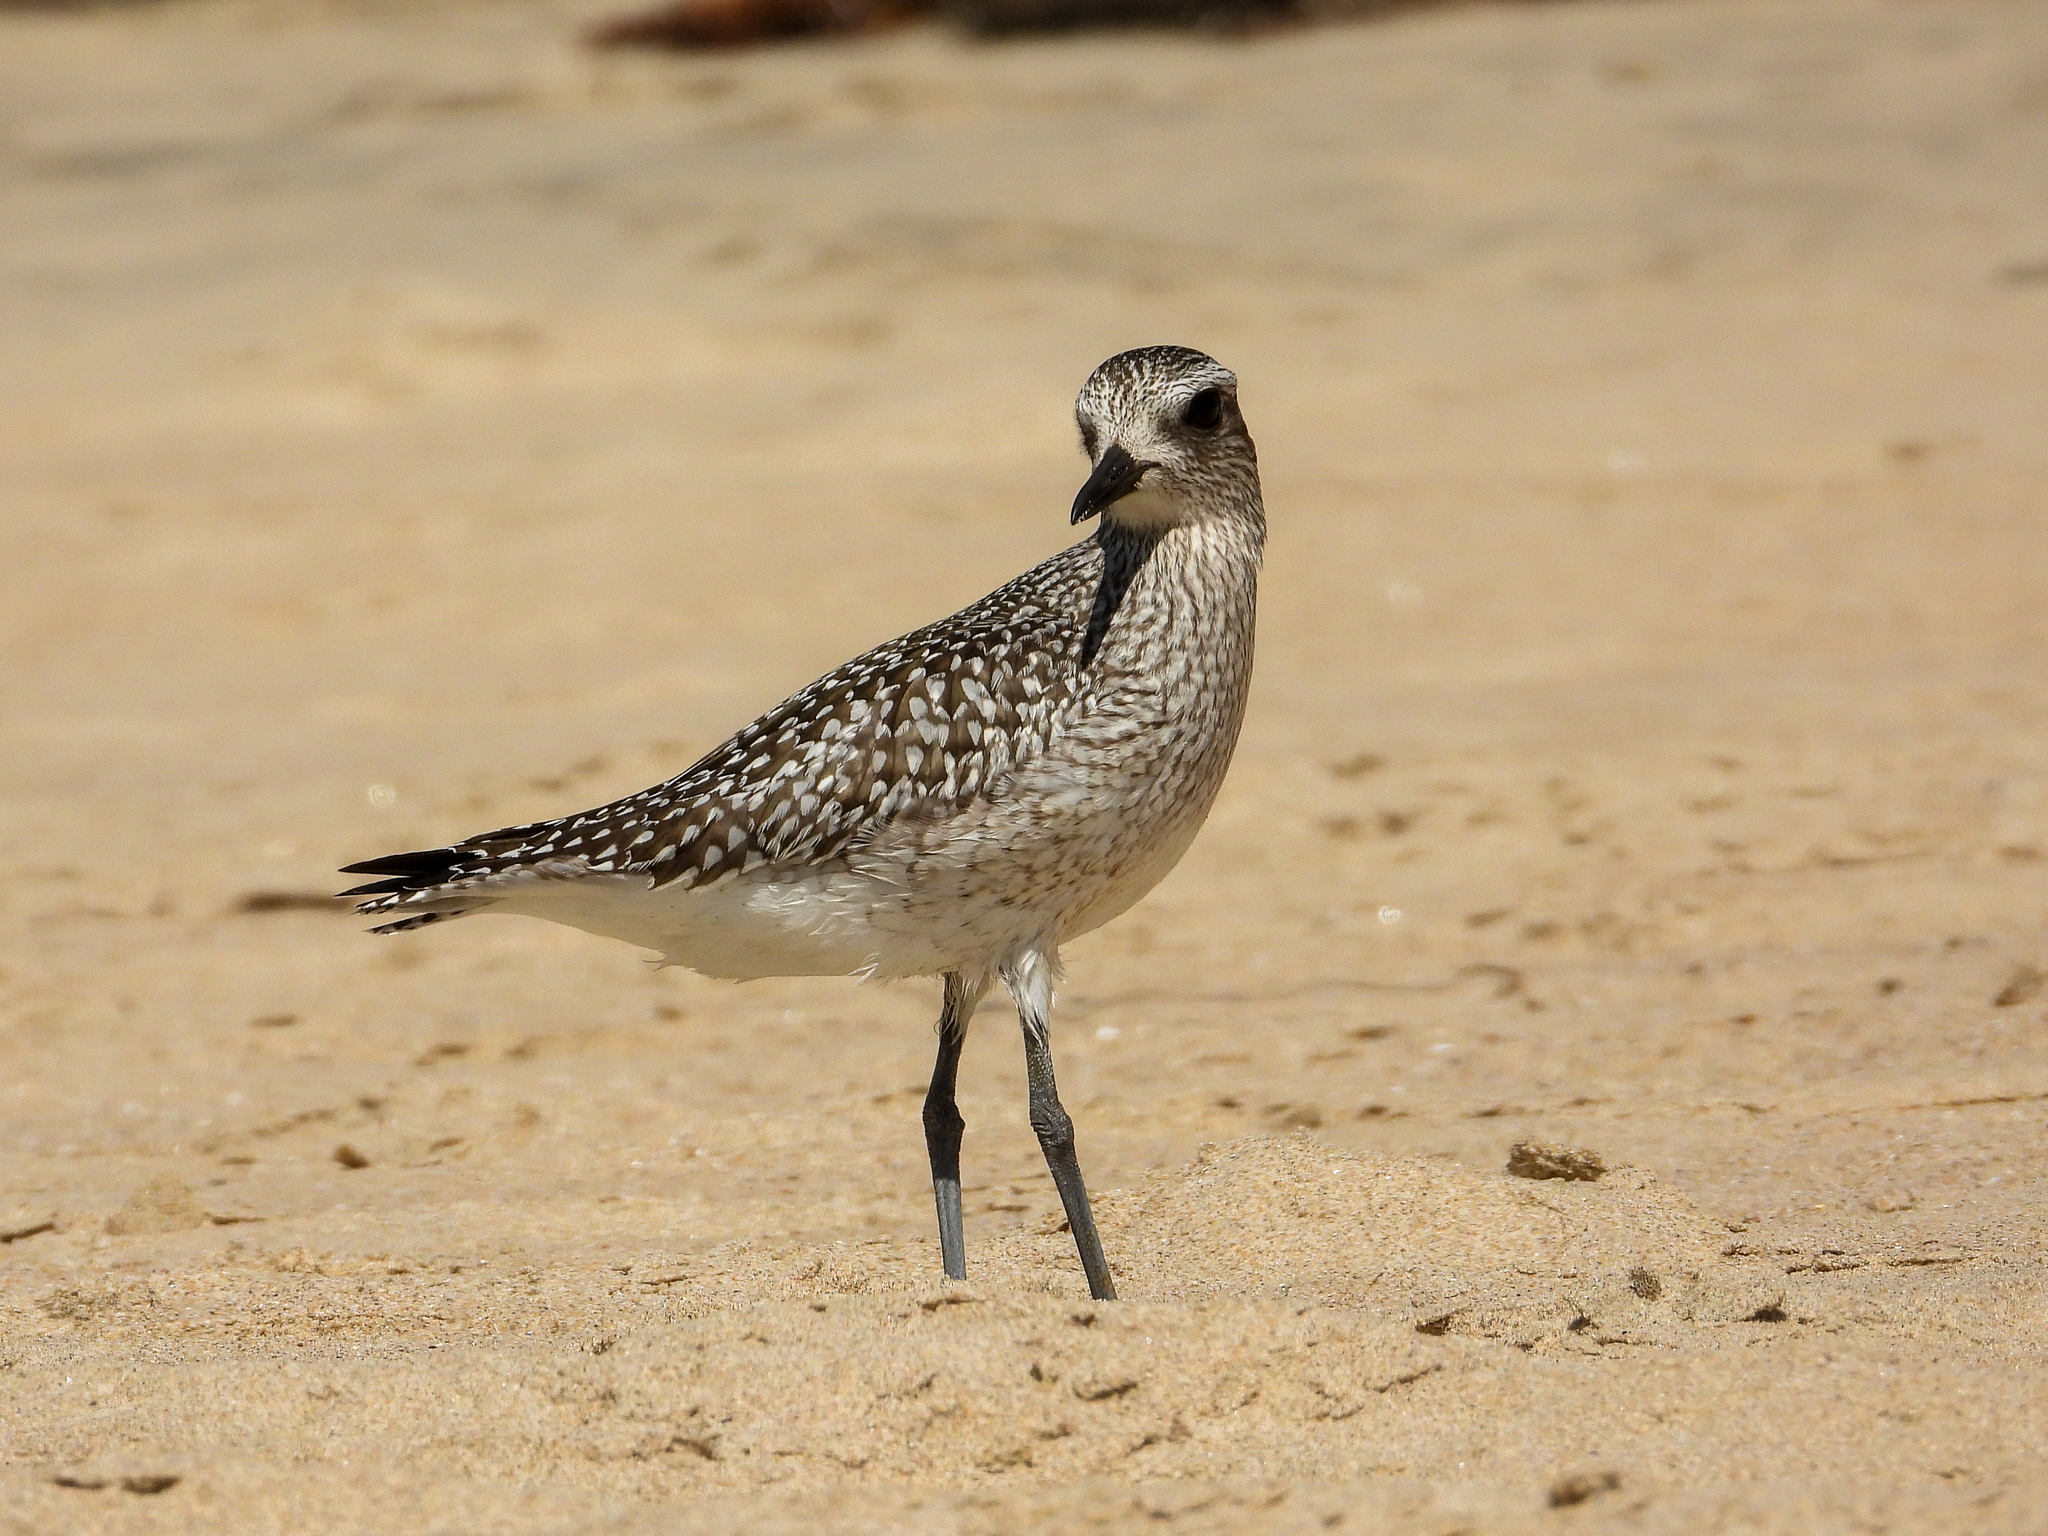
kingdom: Animalia
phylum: Chordata
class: Aves
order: Charadriiformes
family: Charadriidae
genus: Pluvialis
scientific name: Pluvialis squatarola
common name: Grey plover
